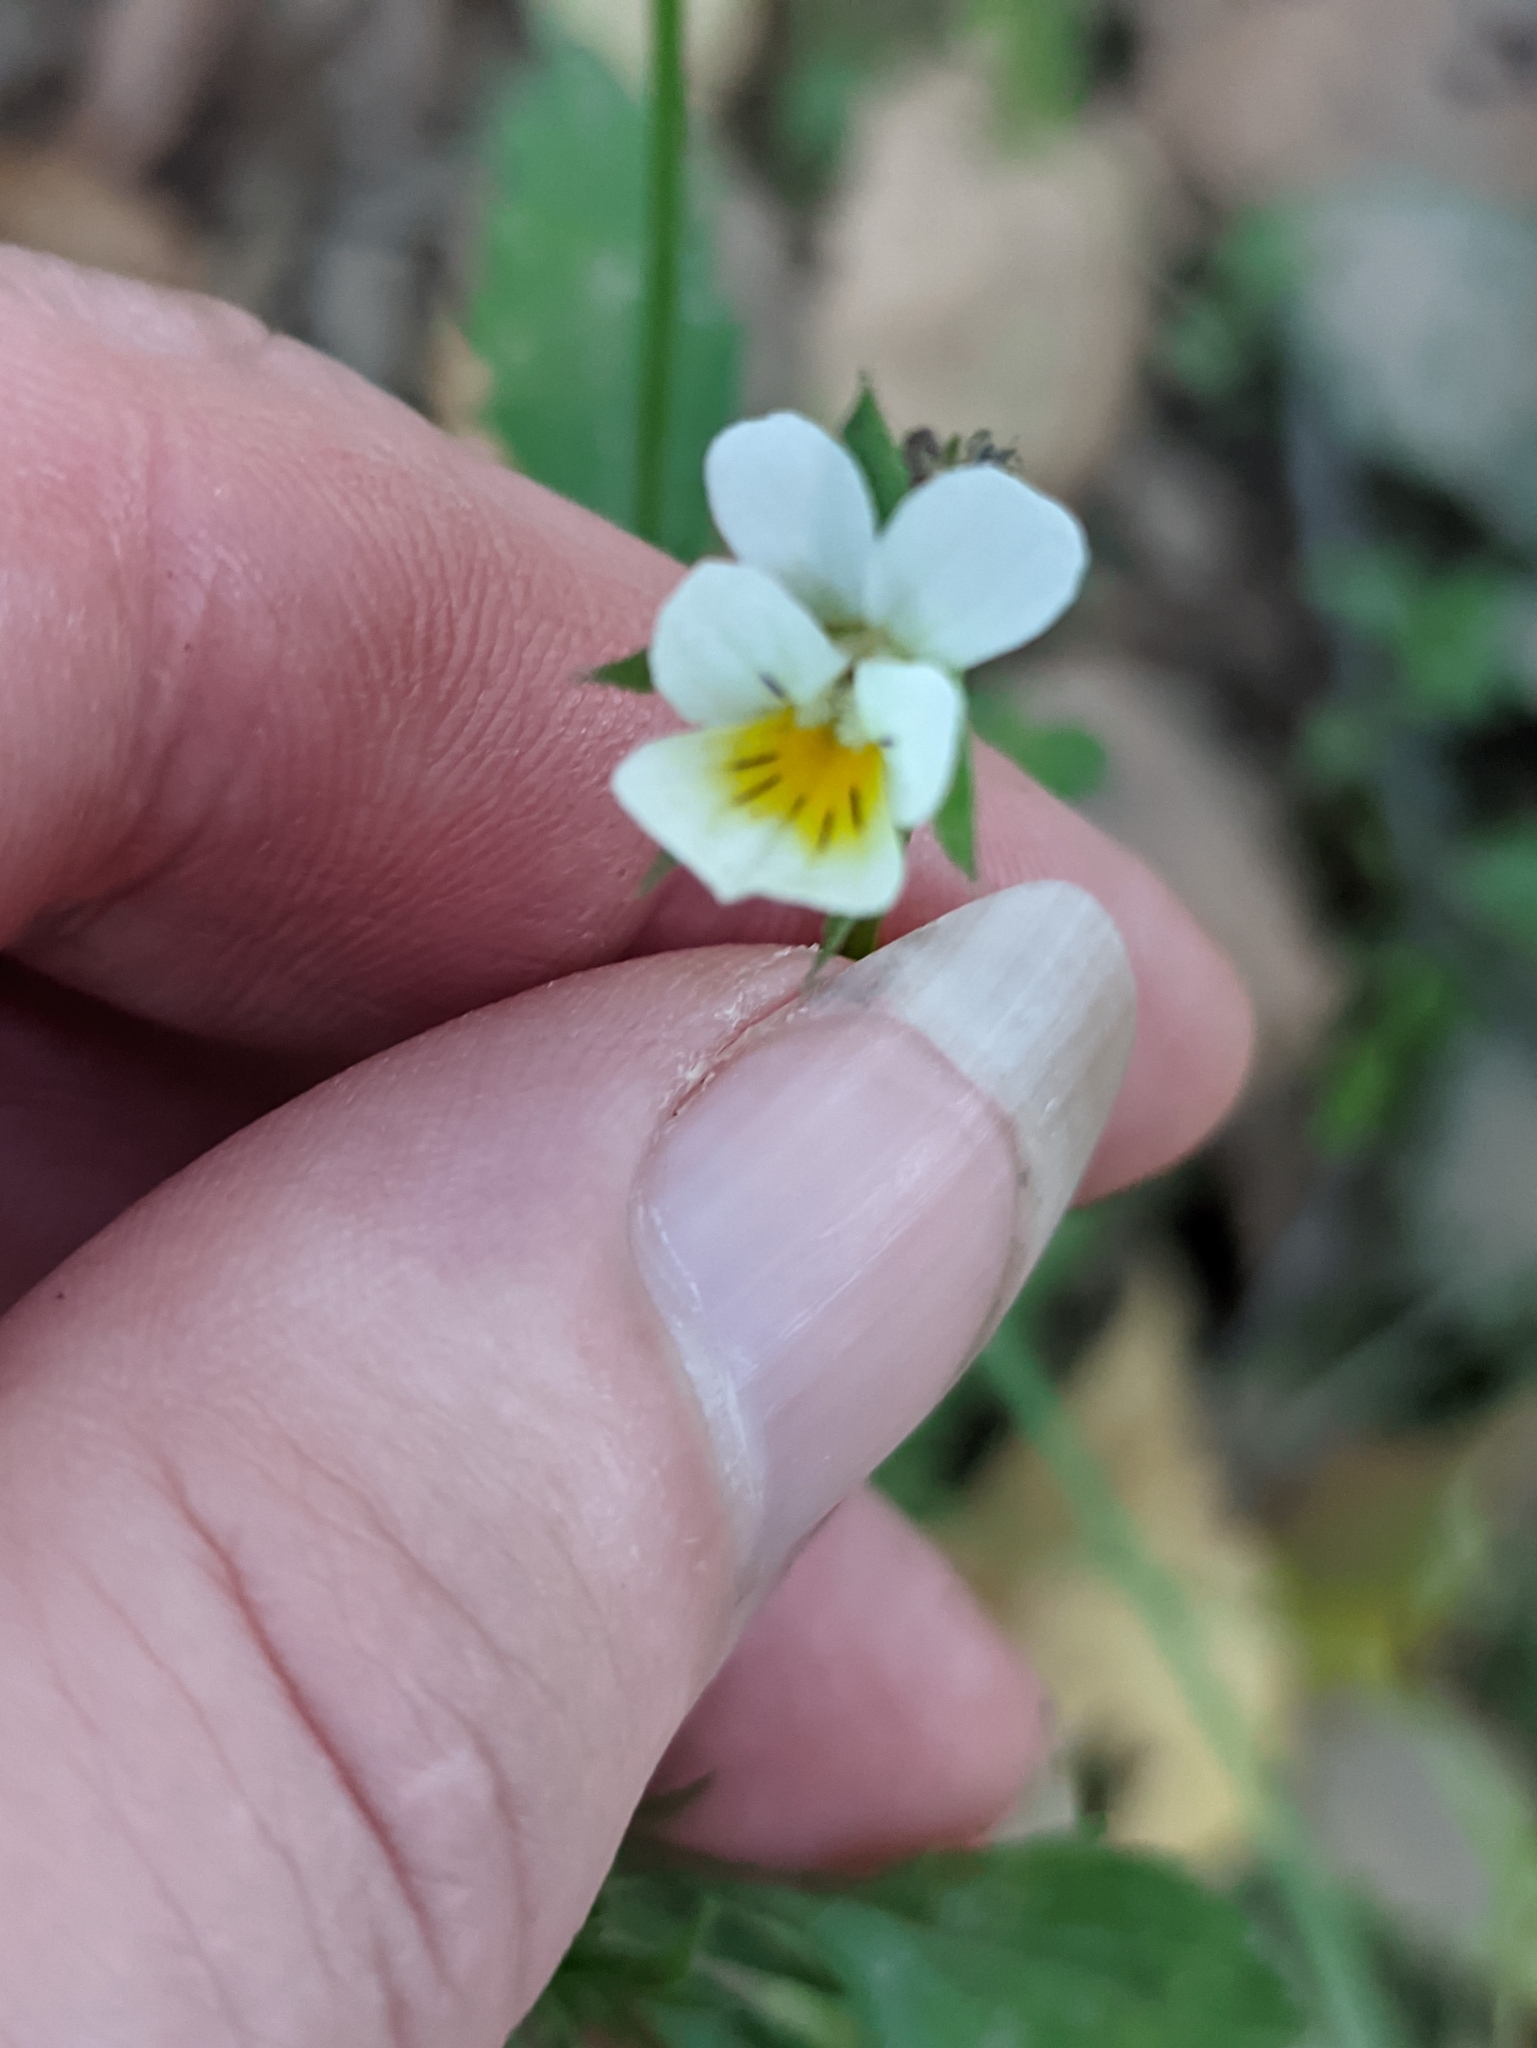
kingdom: Plantae
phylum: Tracheophyta
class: Magnoliopsida
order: Malpighiales
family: Violaceae
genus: Viola
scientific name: Viola arvensis
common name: Field pansy
